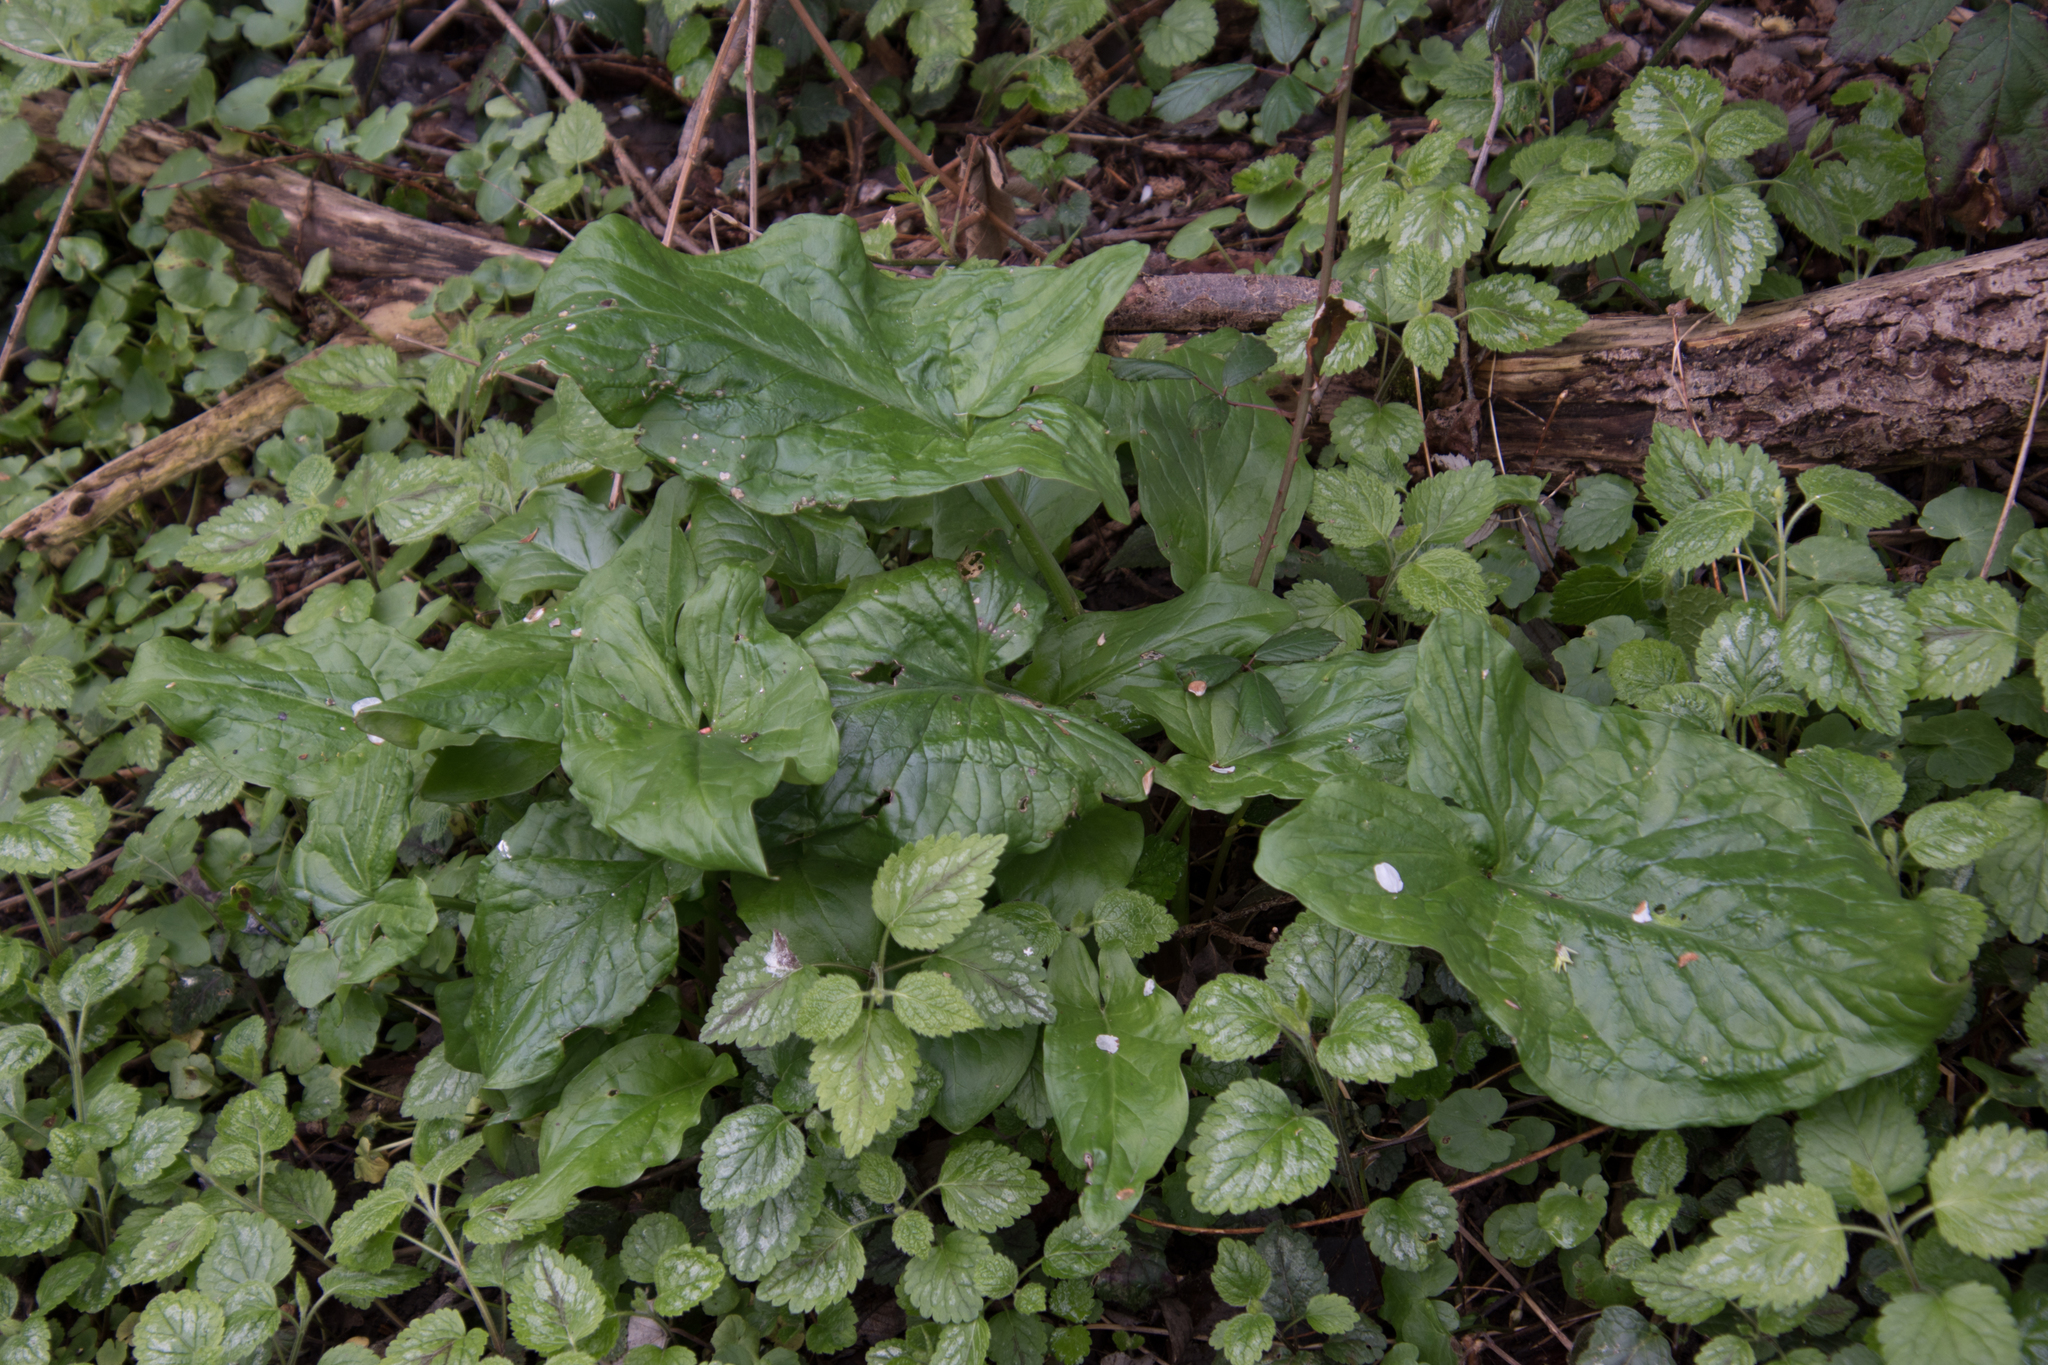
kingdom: Plantae
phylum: Tracheophyta
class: Liliopsida
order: Alismatales
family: Araceae
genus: Arum
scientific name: Arum maculatum
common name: Lords-and-ladies
